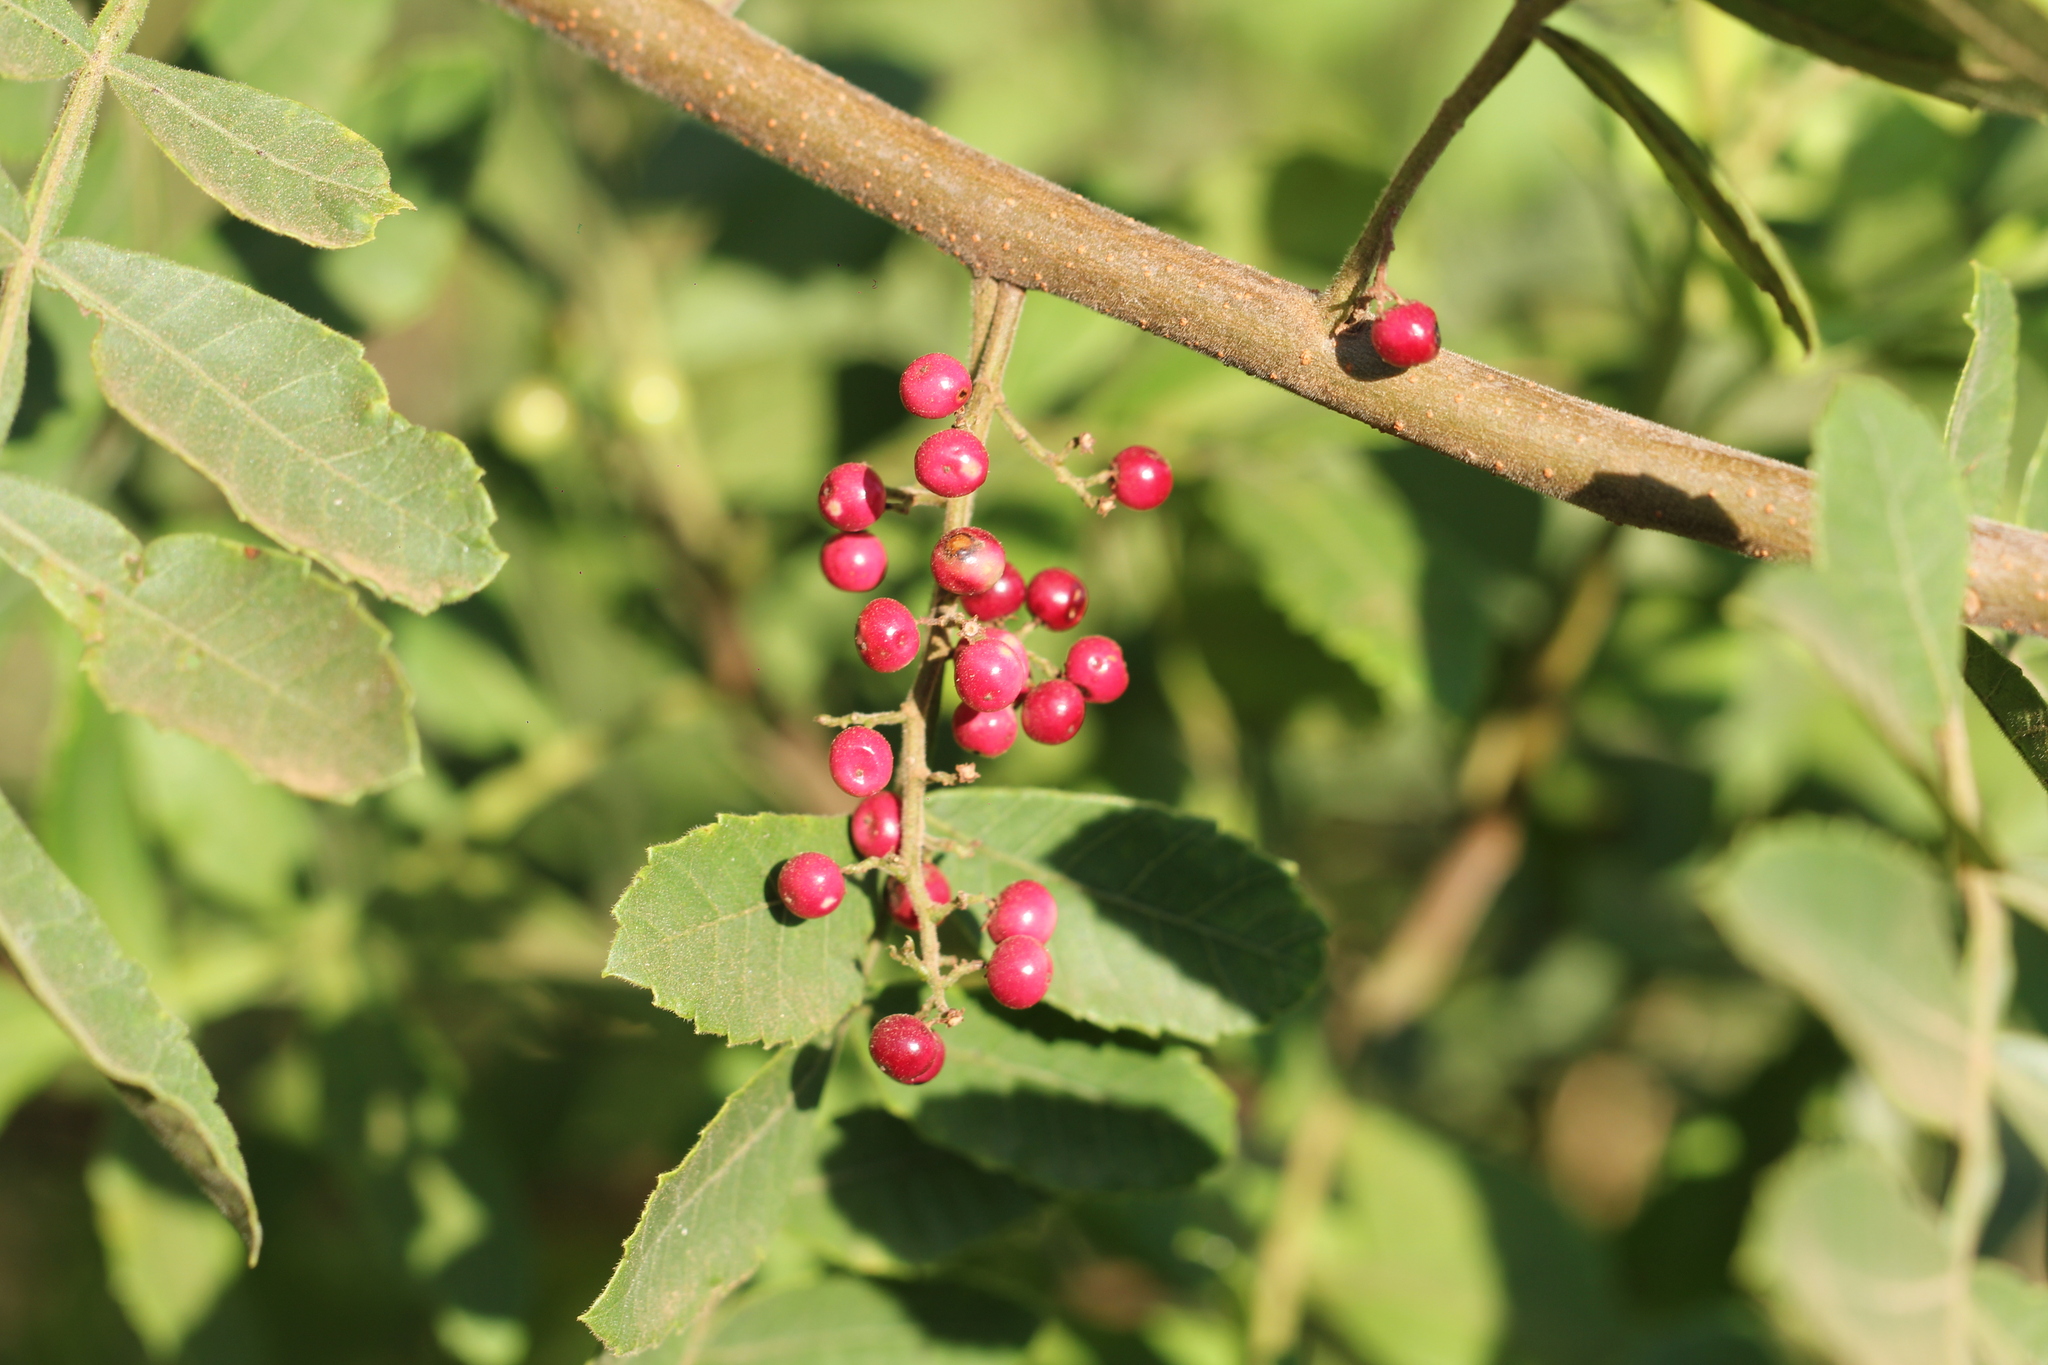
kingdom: Plantae
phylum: Tracheophyta
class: Magnoliopsida
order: Sapindales
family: Anacardiaceae
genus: Schinus
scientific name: Schinus terebinthifolia
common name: Brazilian peppertree
